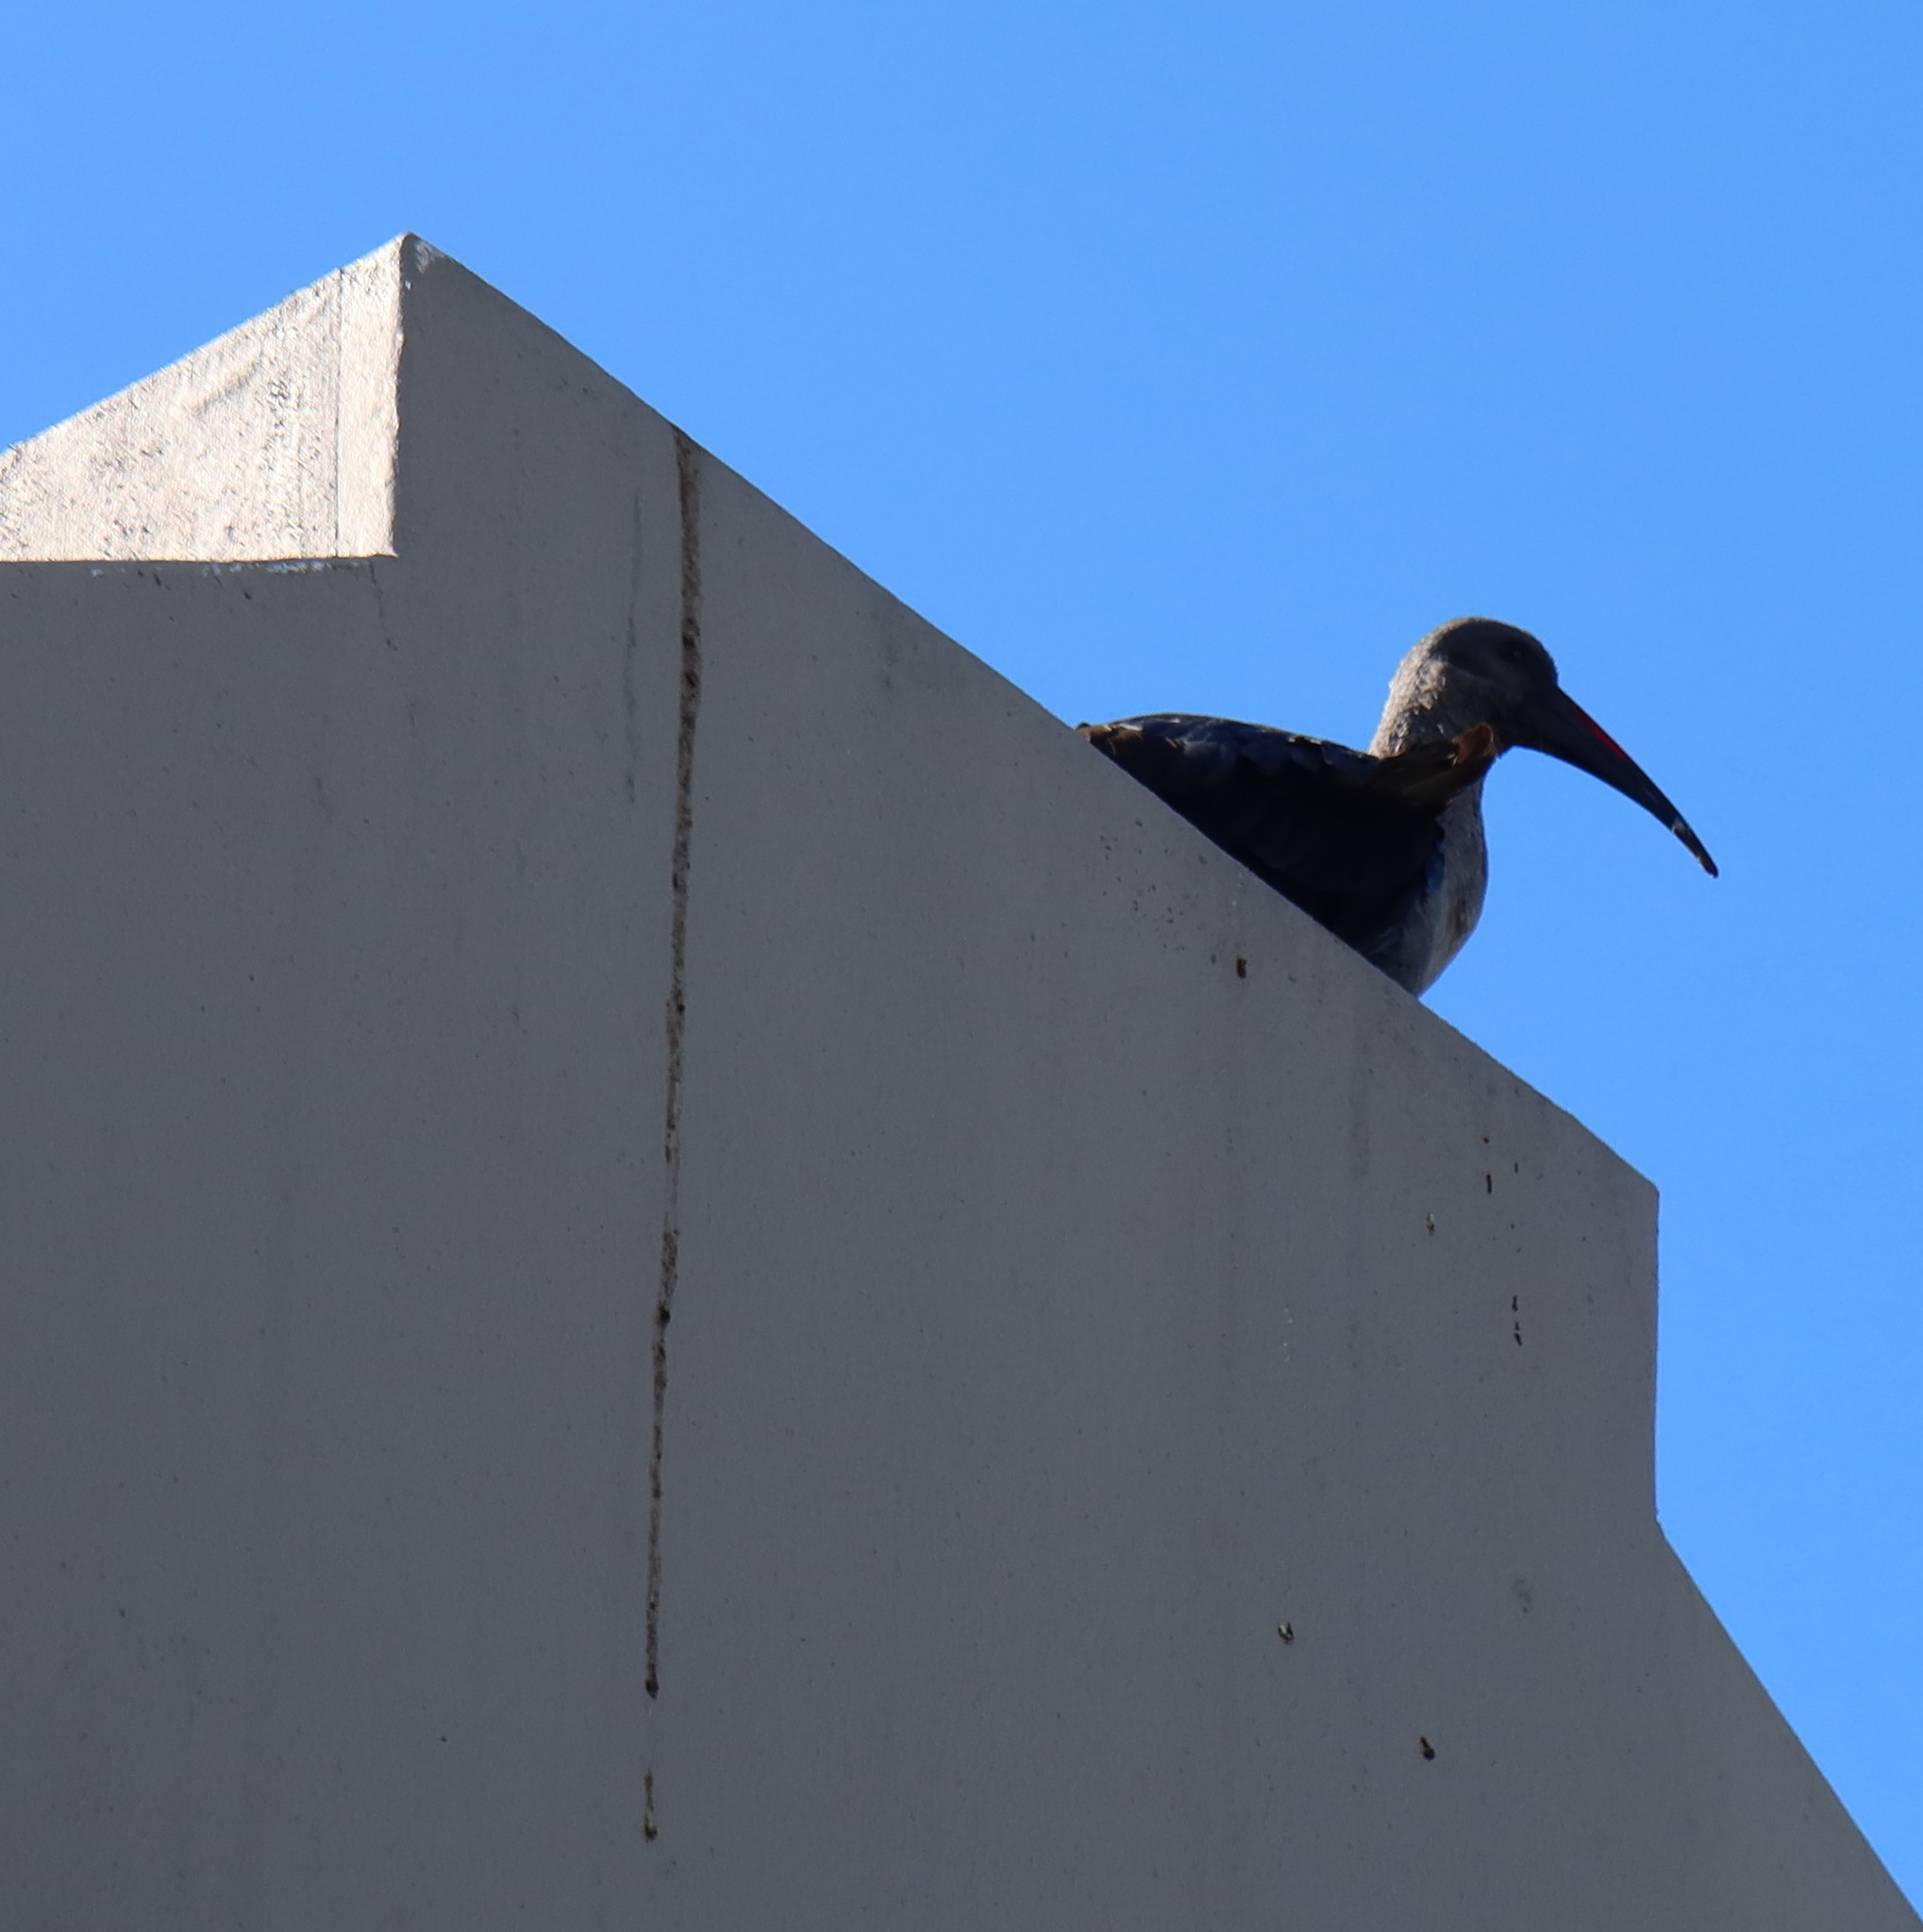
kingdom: Animalia
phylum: Chordata
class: Aves
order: Pelecaniformes
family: Threskiornithidae
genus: Bostrychia
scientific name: Bostrychia hagedash
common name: Hadada ibis
